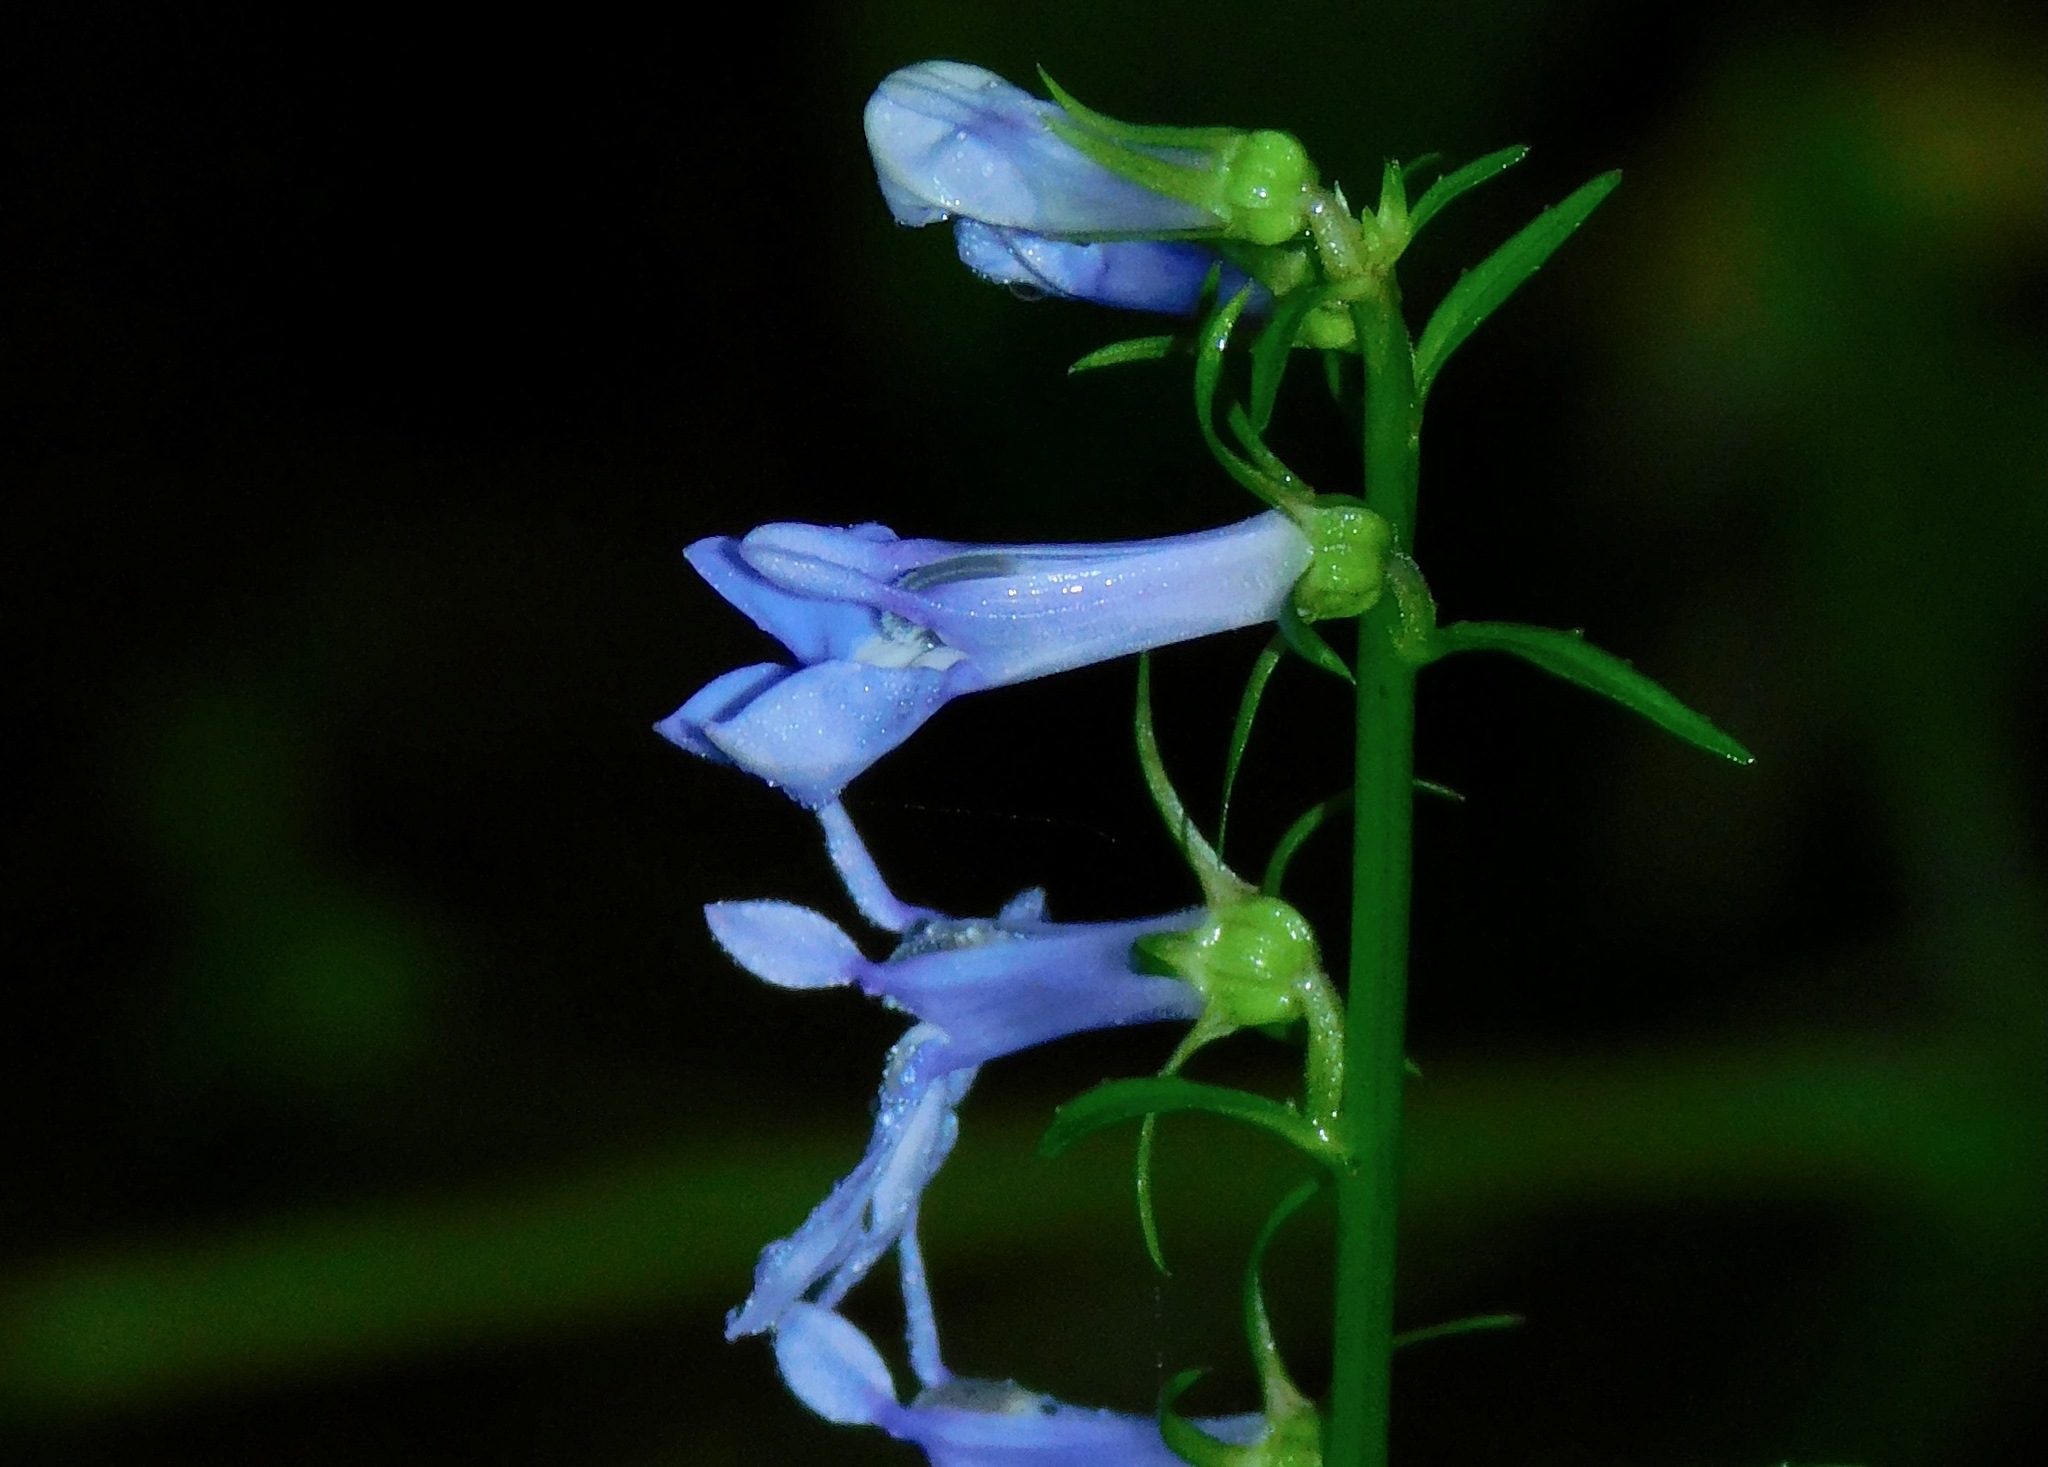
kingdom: Plantae
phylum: Tracheophyta
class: Magnoliopsida
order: Asterales
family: Campanulaceae
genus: Lobelia
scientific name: Lobelia amoena
